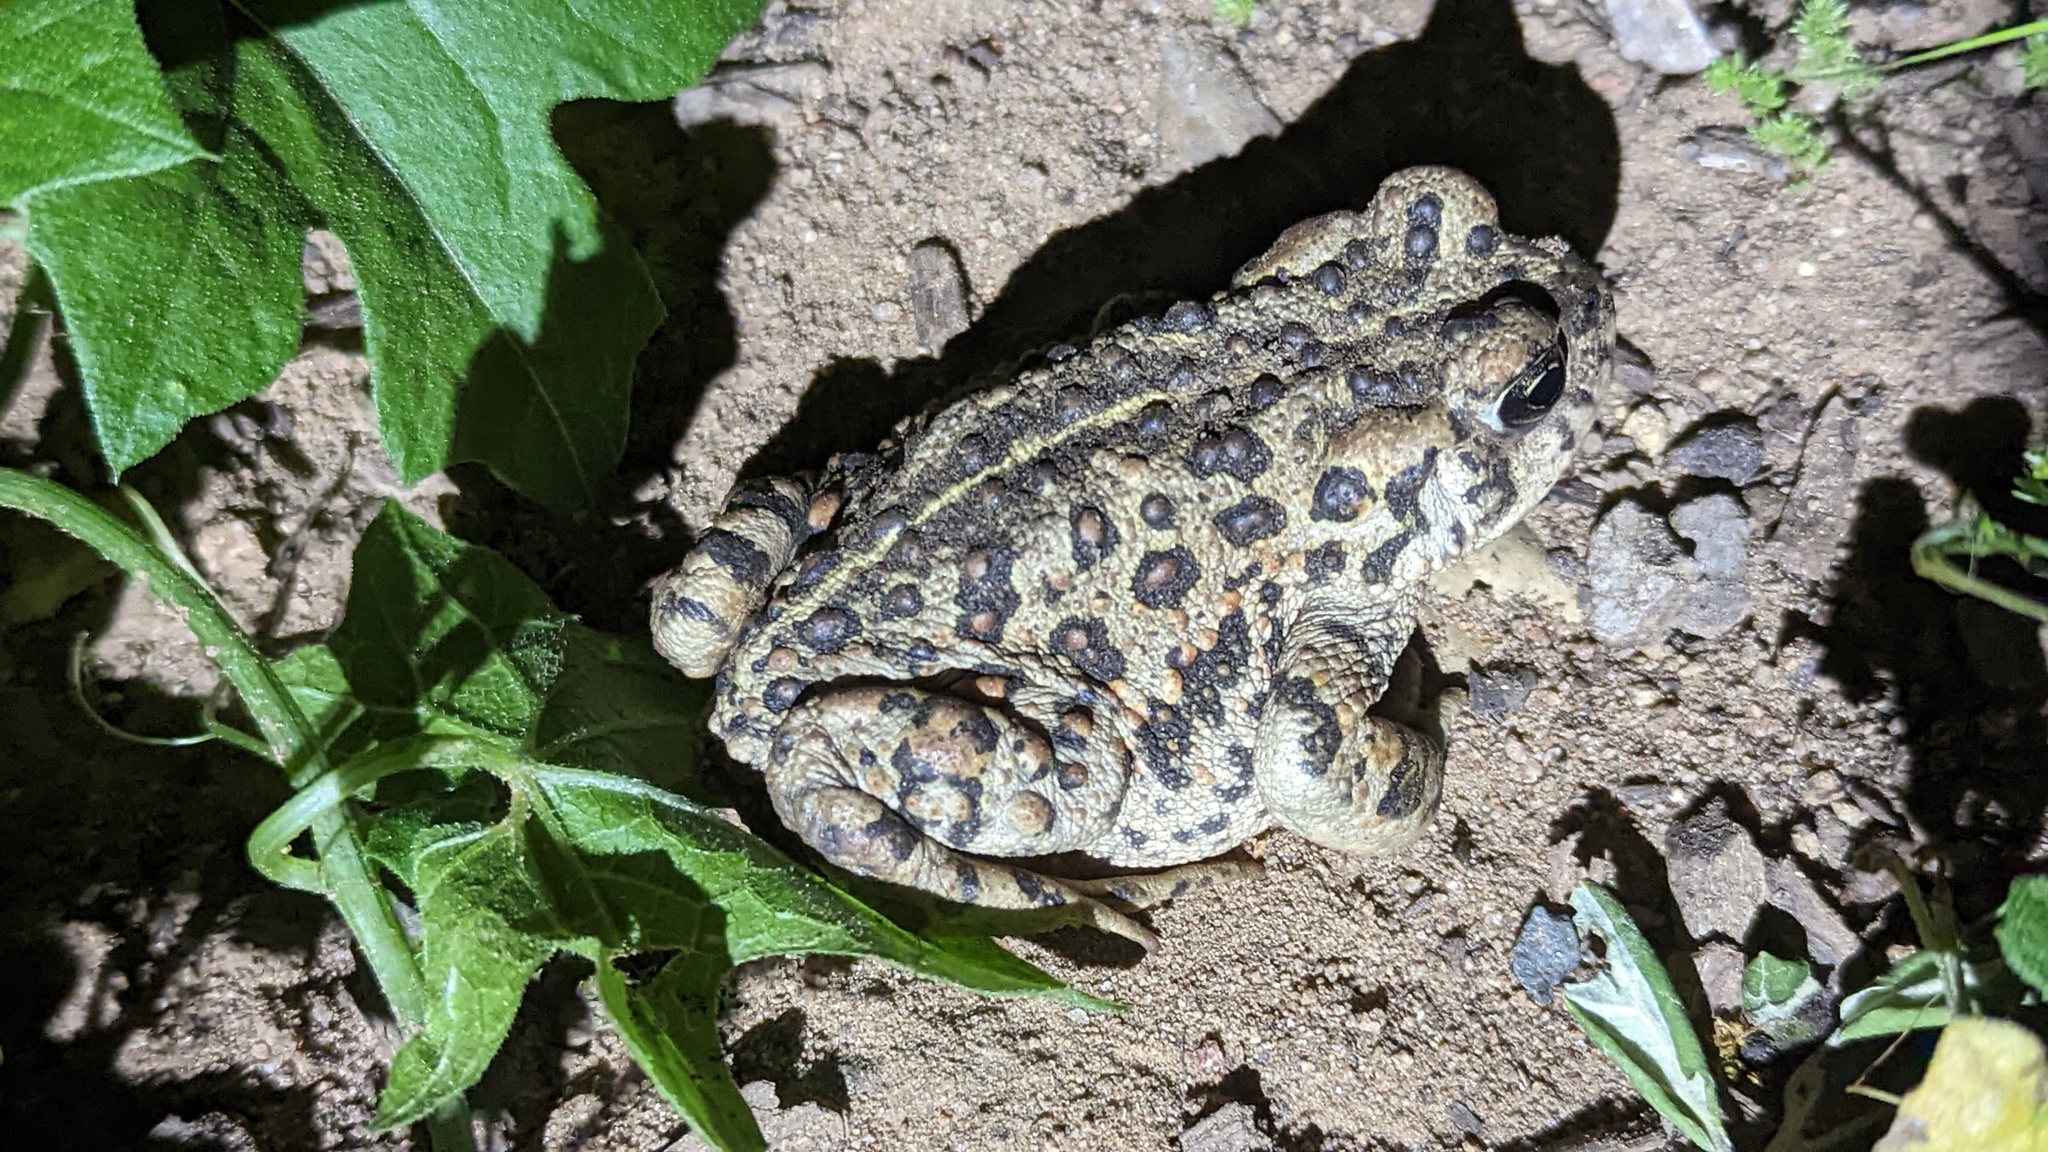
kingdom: Animalia
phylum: Chordata
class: Amphibia
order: Anura
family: Bufonidae
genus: Anaxyrus
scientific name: Anaxyrus boreas
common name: Western toad
